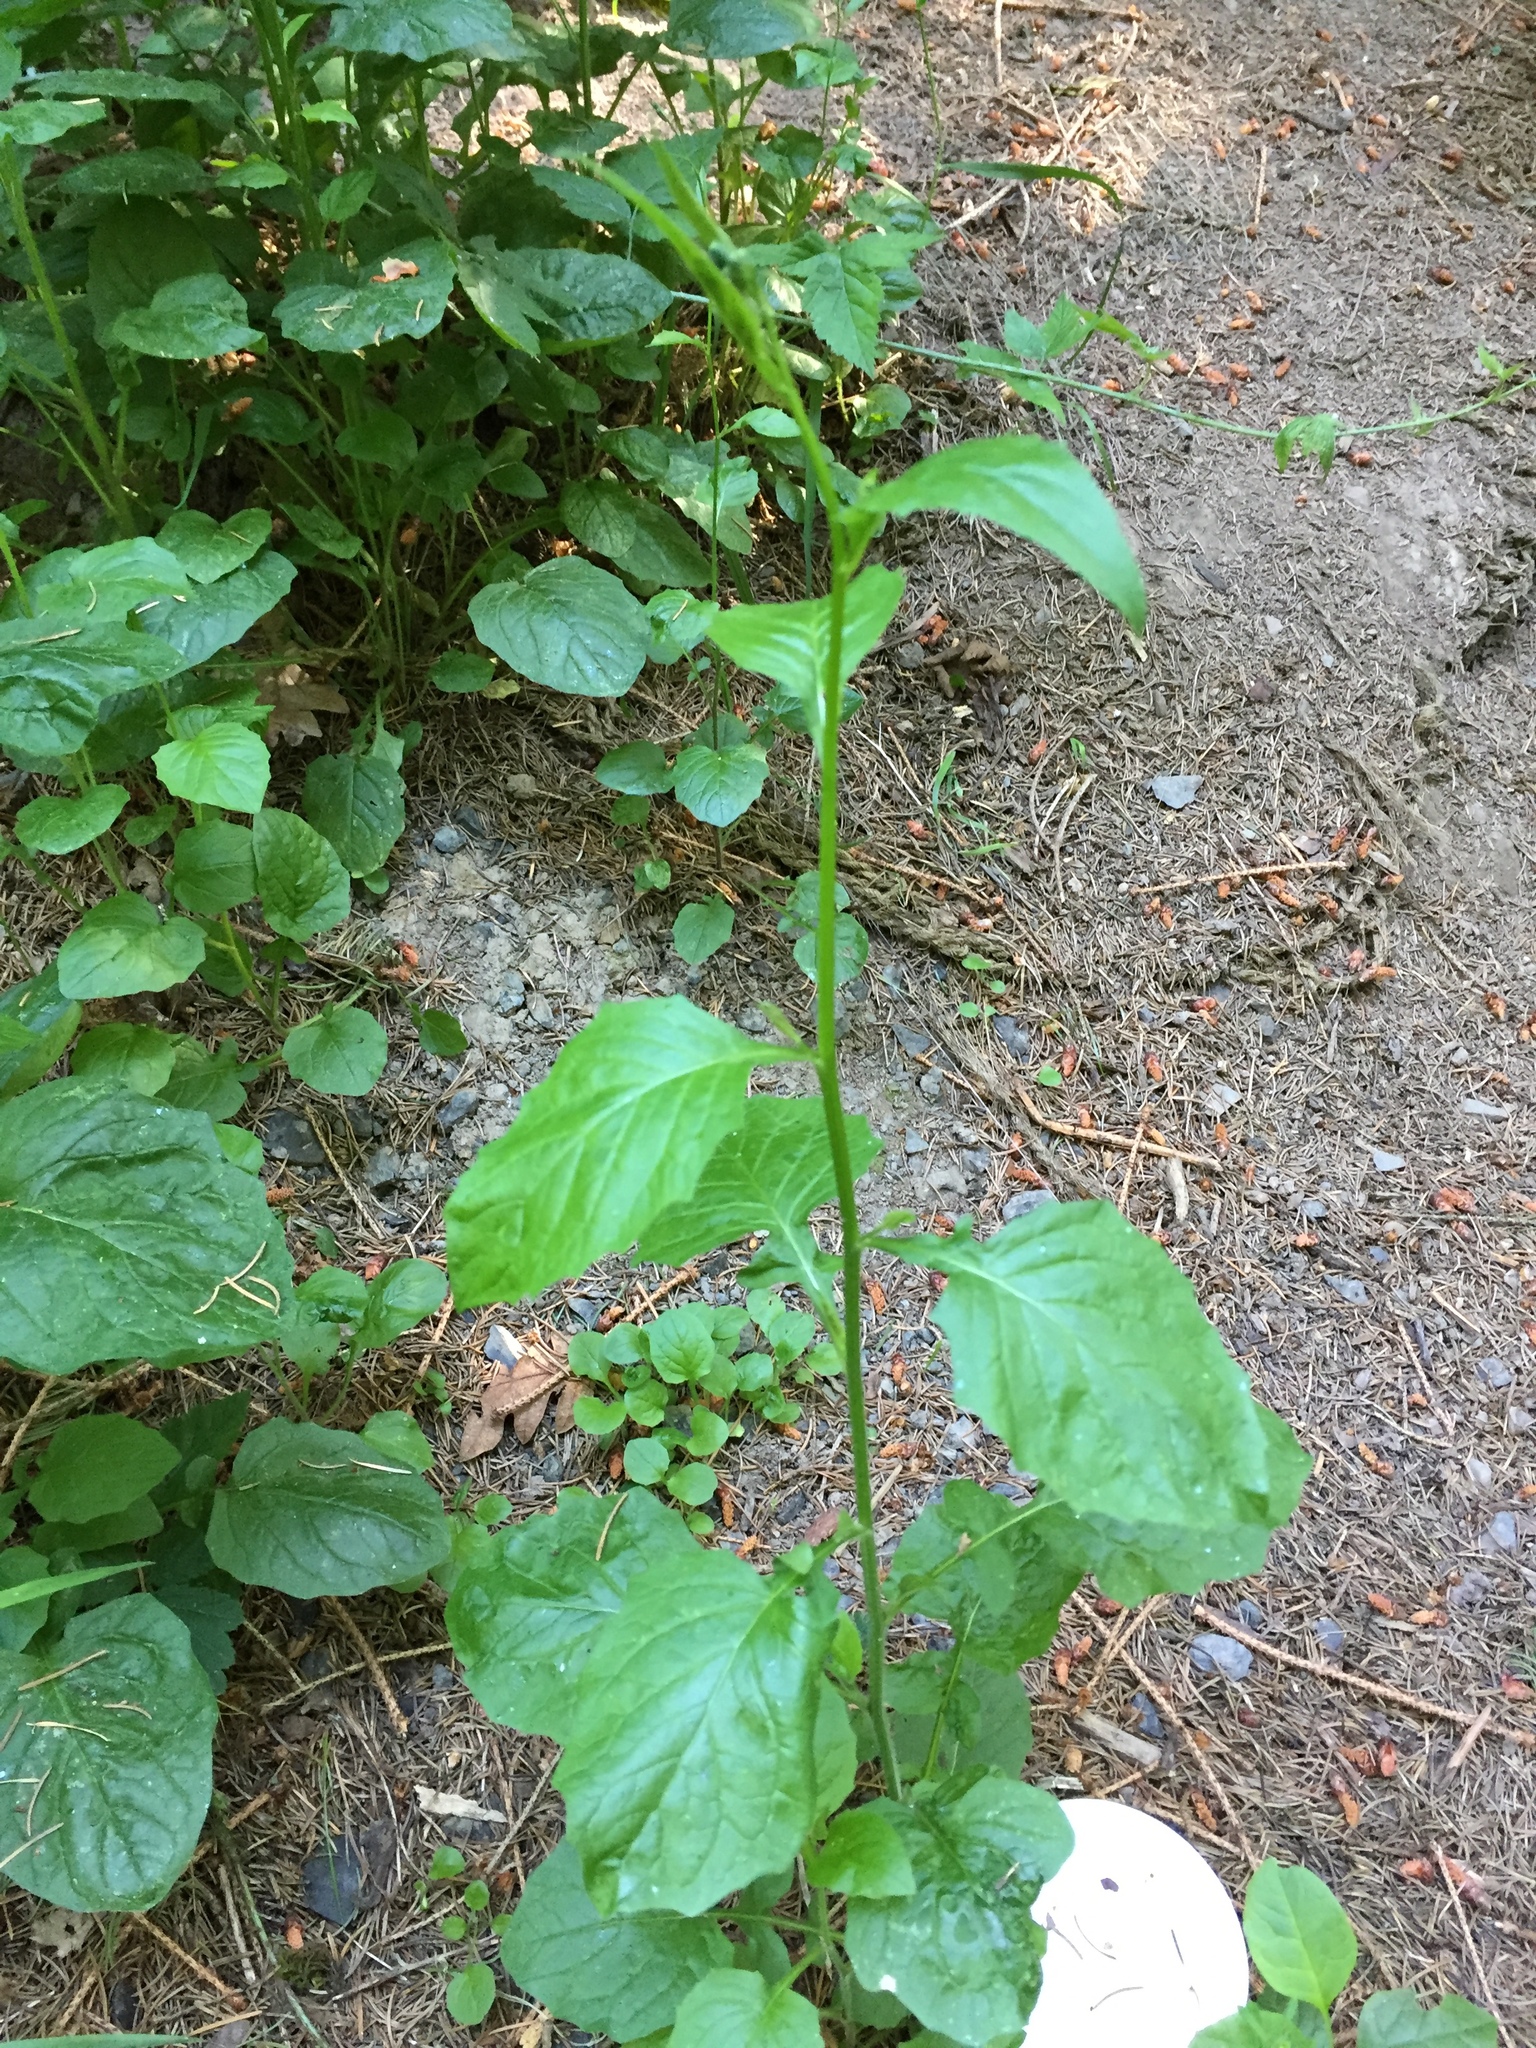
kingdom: Plantae
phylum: Tracheophyta
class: Magnoliopsida
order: Asterales
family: Asteraceae
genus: Lapsana
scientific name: Lapsana communis
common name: Nipplewort
